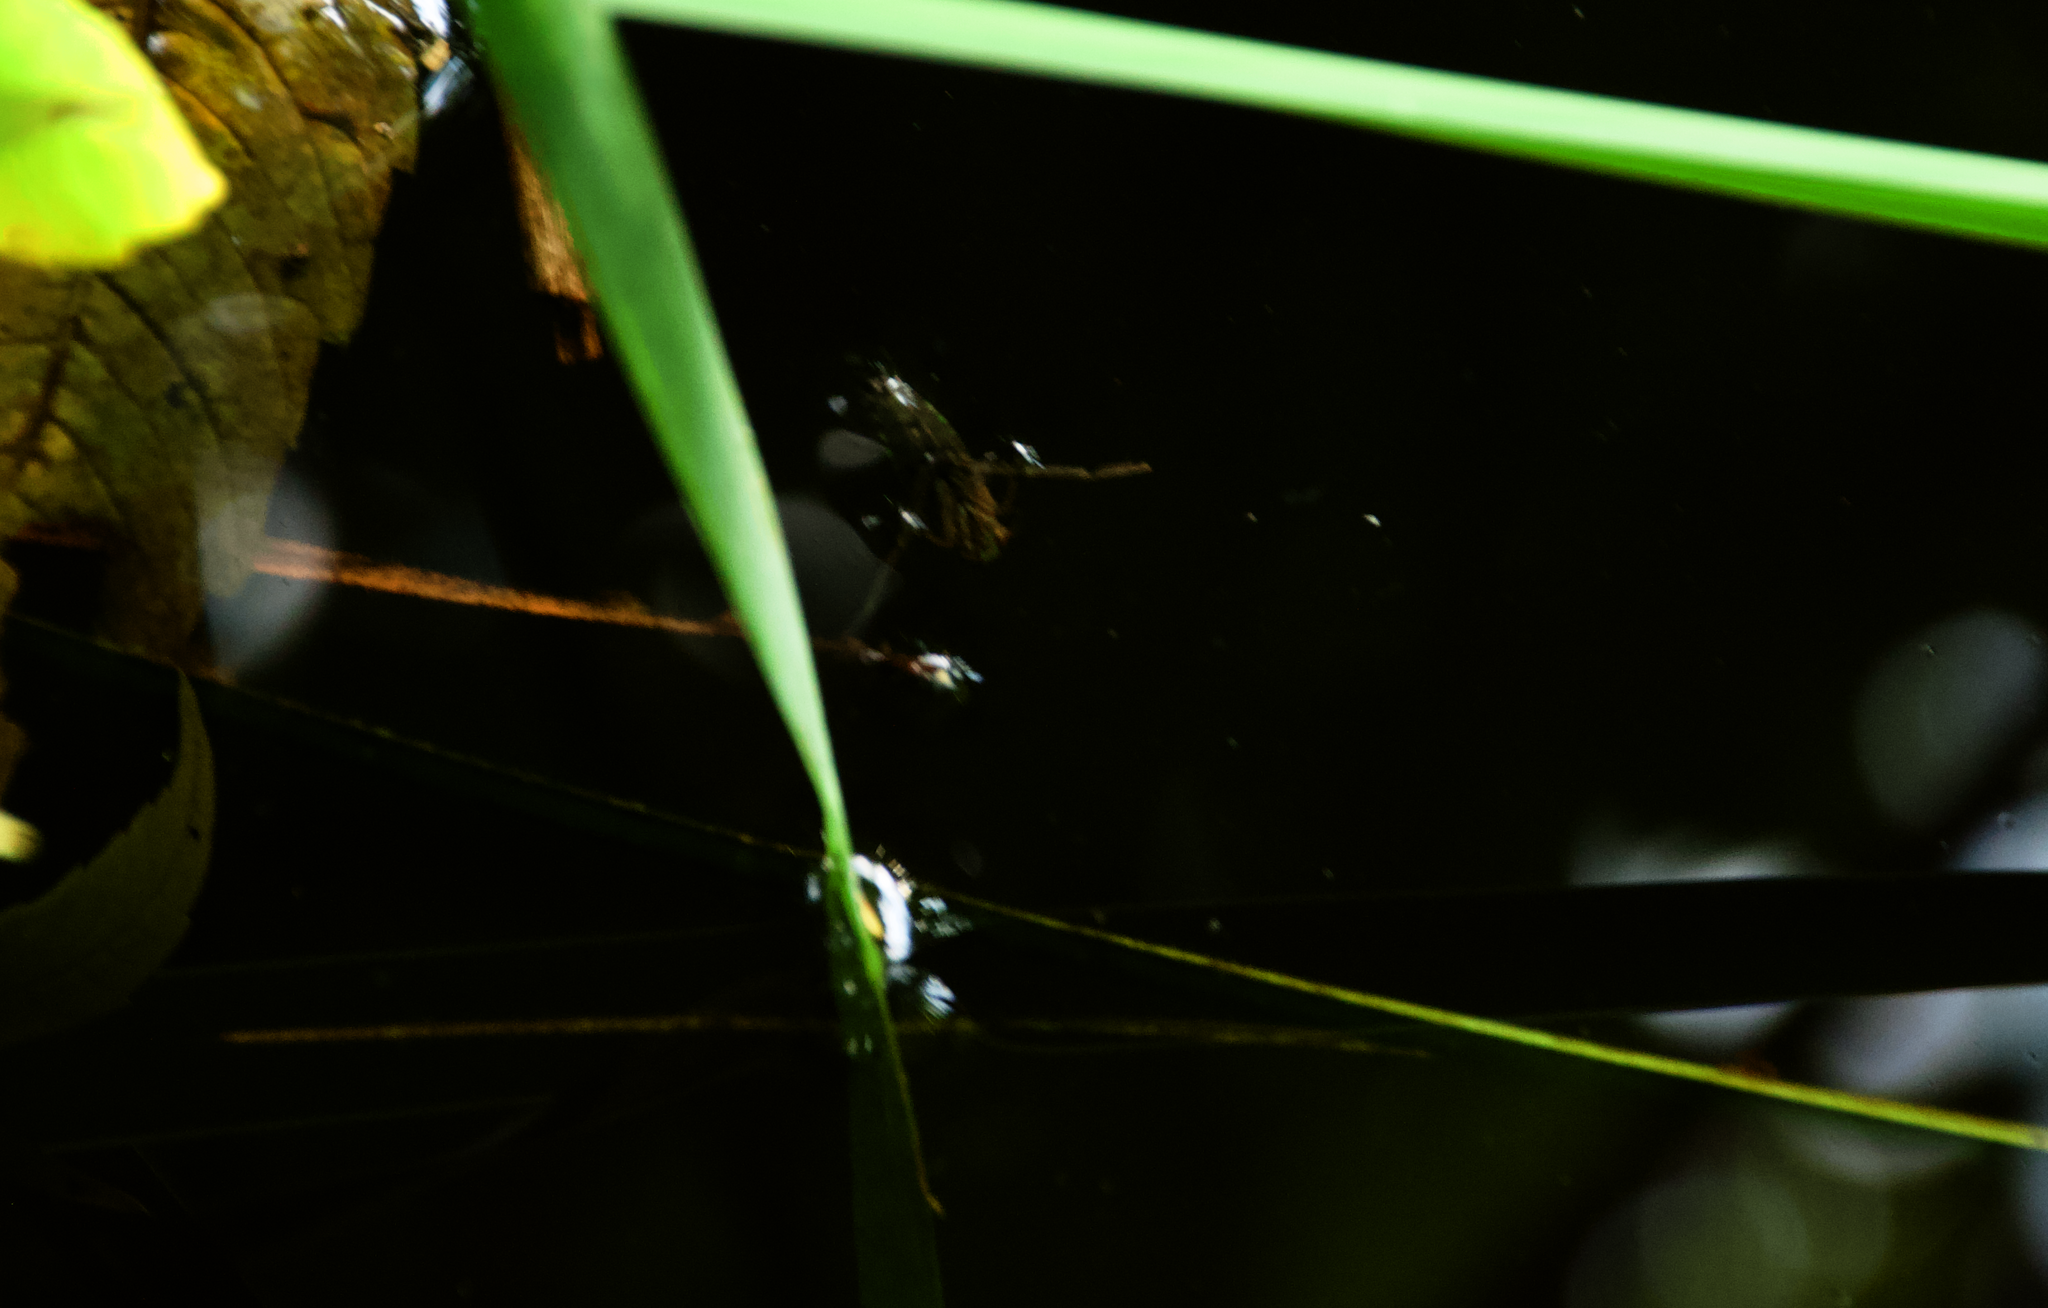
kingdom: Animalia
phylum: Arthropoda
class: Insecta
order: Hemiptera
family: Notonectidae
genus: Notonecta
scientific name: Notonecta
